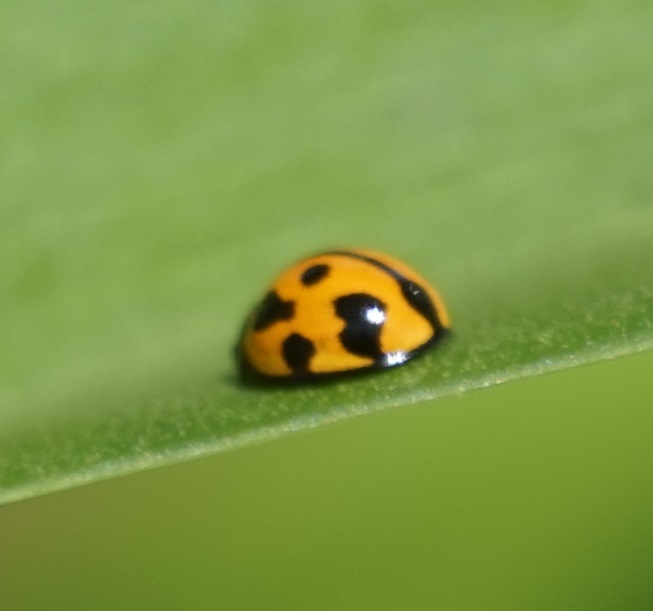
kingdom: Animalia
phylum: Arthropoda
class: Insecta
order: Coleoptera
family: Coccinellidae
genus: Coelophora
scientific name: Coelophora inaequalis
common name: Common australian lady beetle
